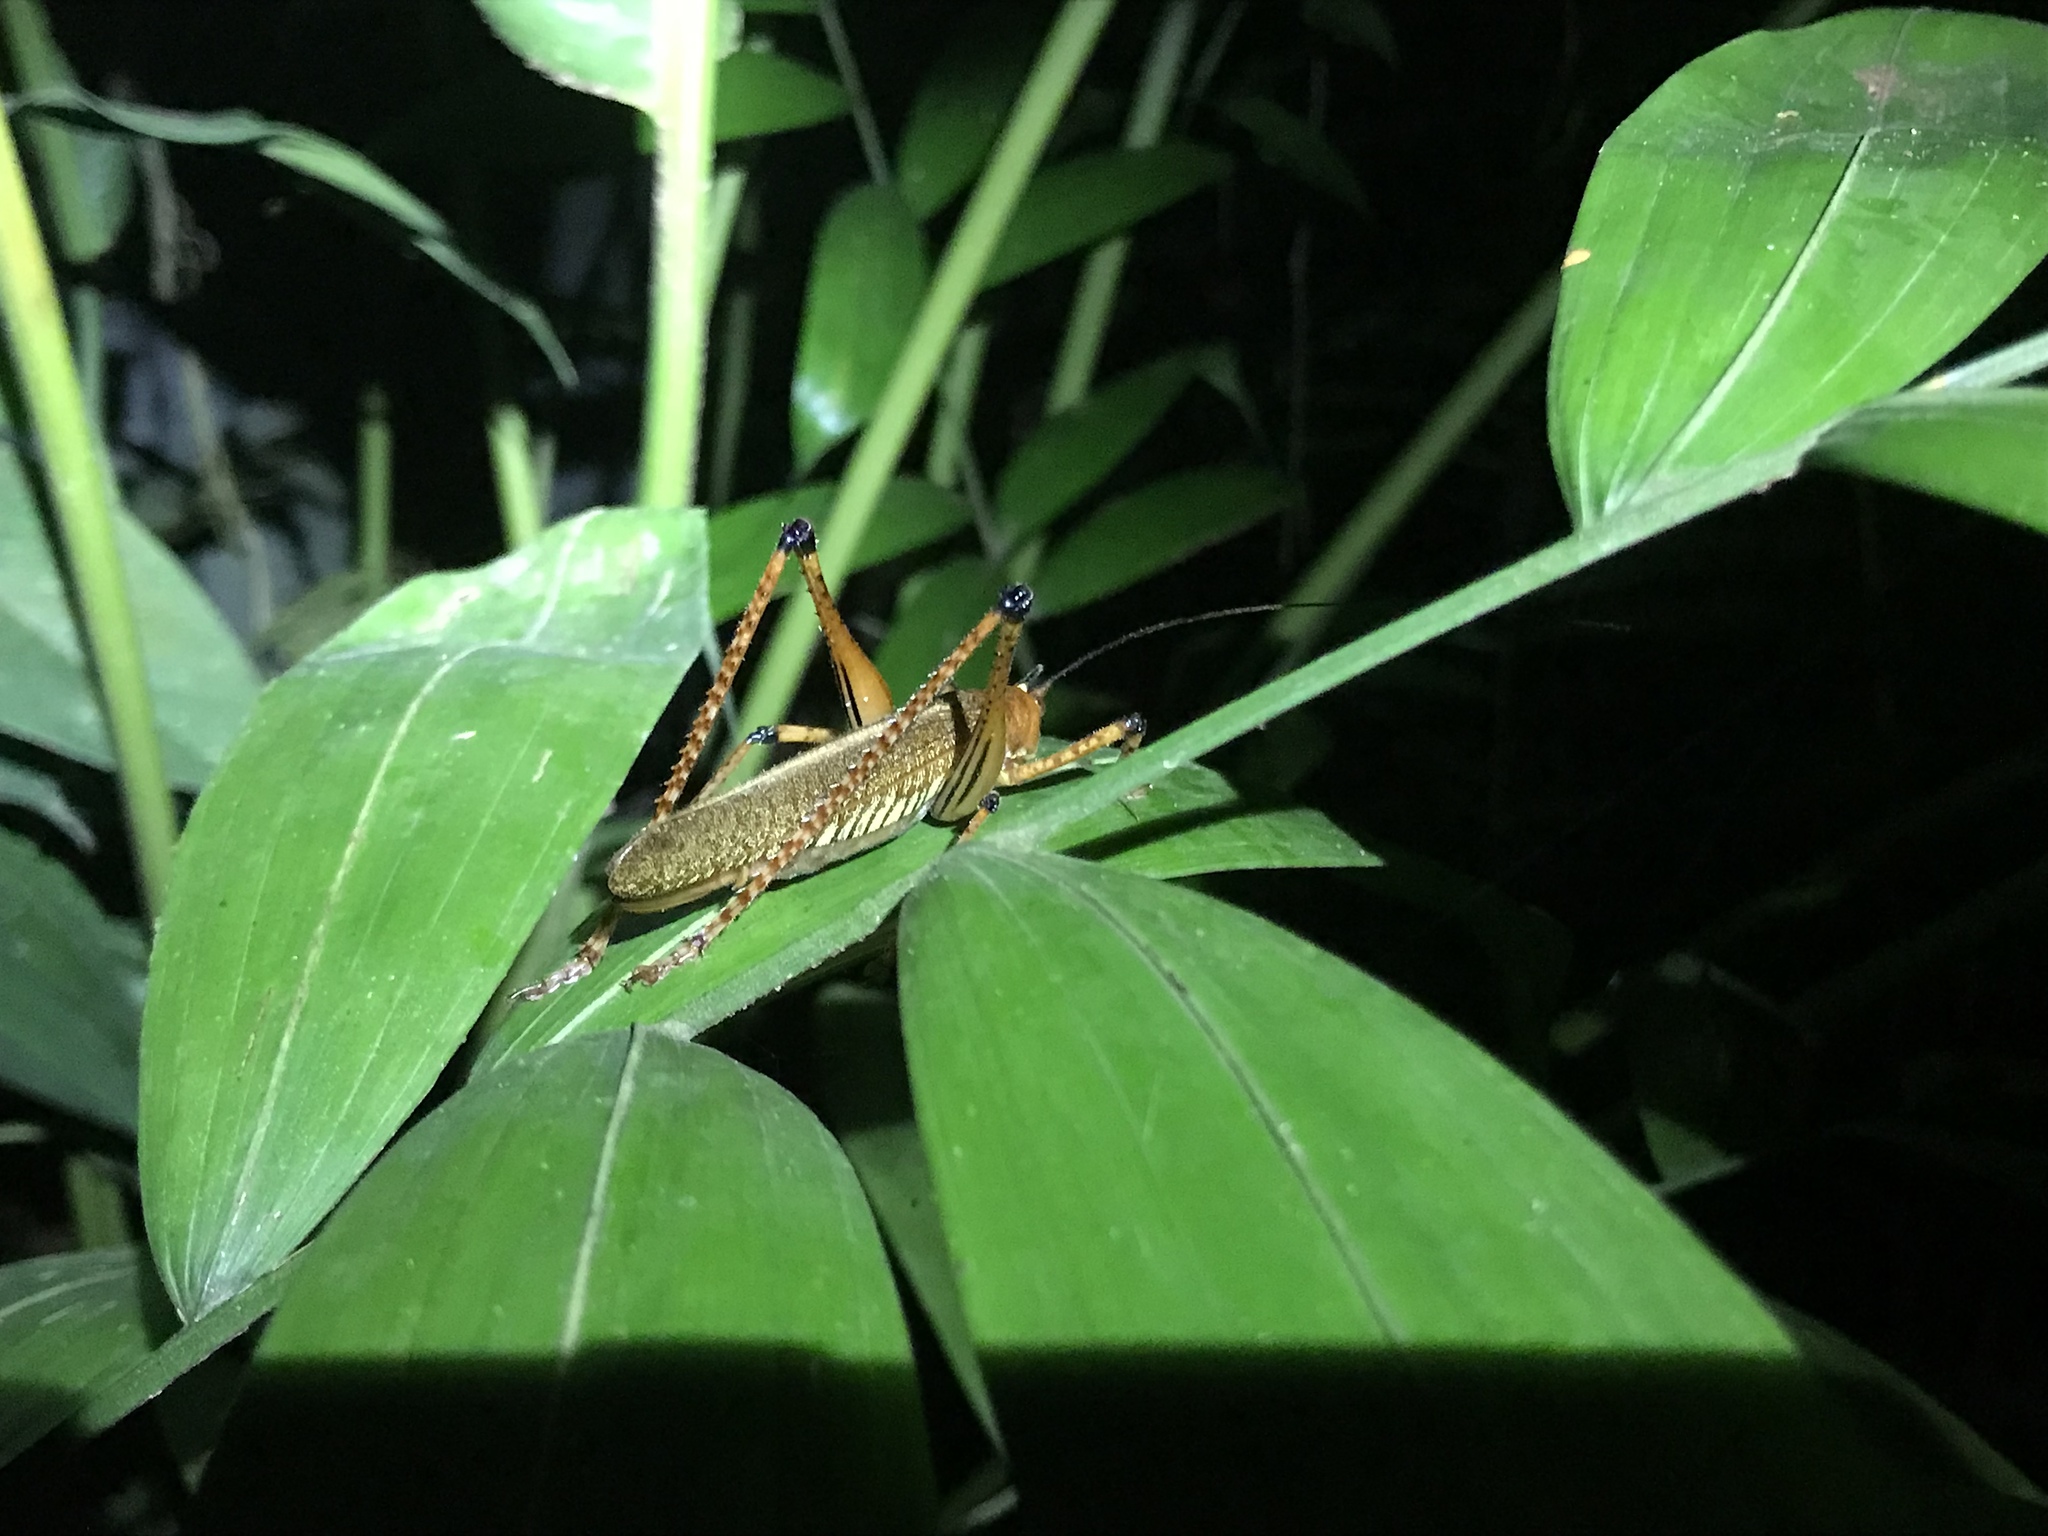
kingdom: Animalia
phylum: Arthropoda
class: Insecta
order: Orthoptera
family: Tettigoniidae
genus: Ischnomela
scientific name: Ischnomela gracilis
